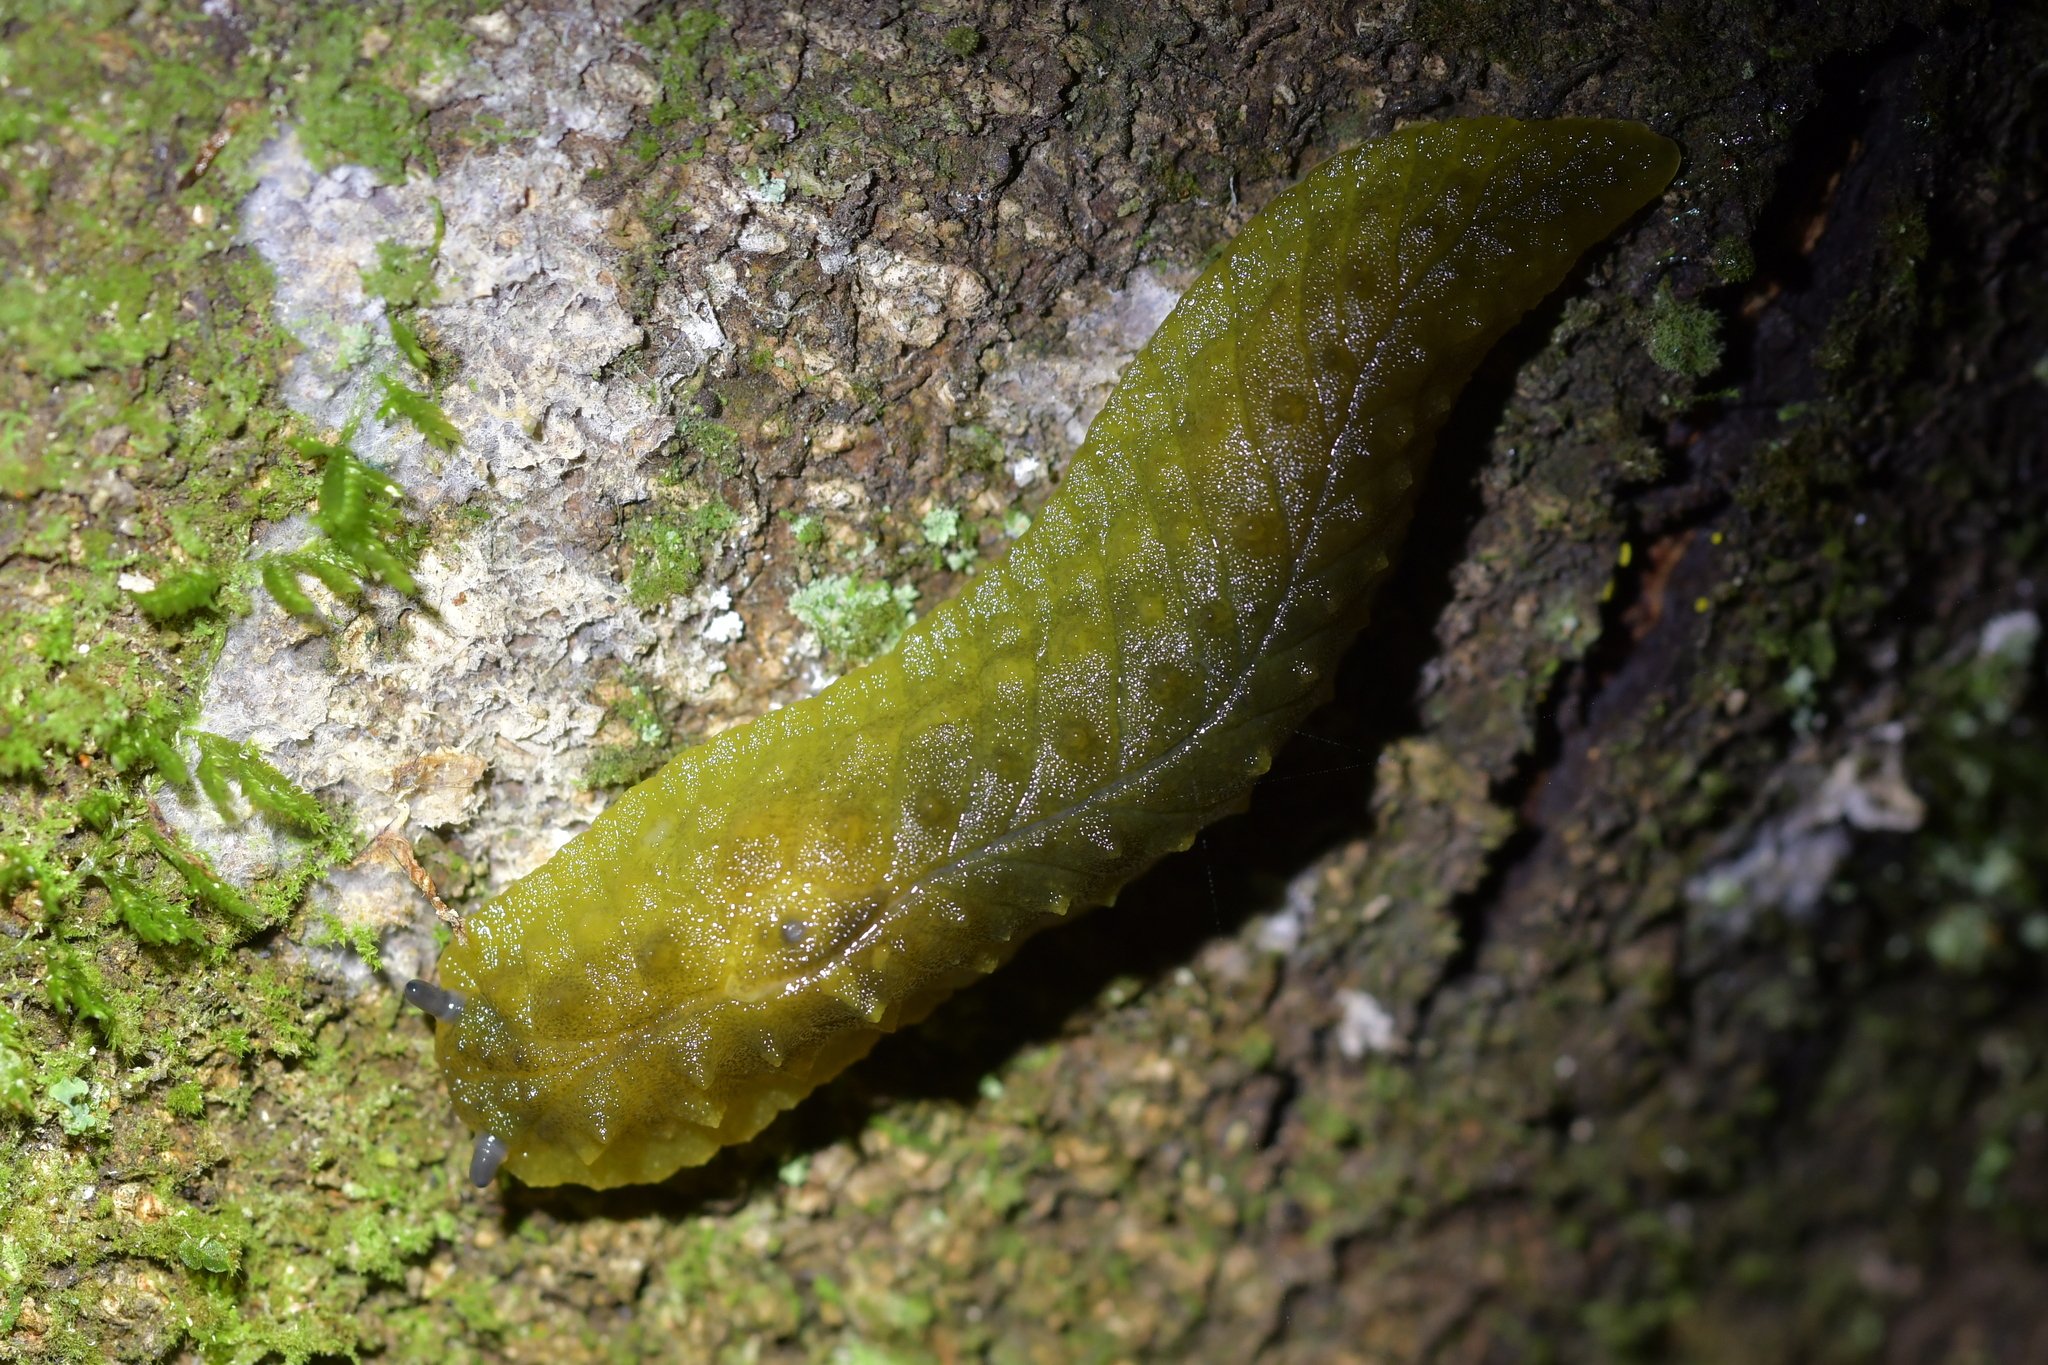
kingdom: Animalia
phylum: Mollusca
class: Gastropoda
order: Stylommatophora
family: Athoracophoridae
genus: Athoracophorus
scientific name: Athoracophorus papillatus
